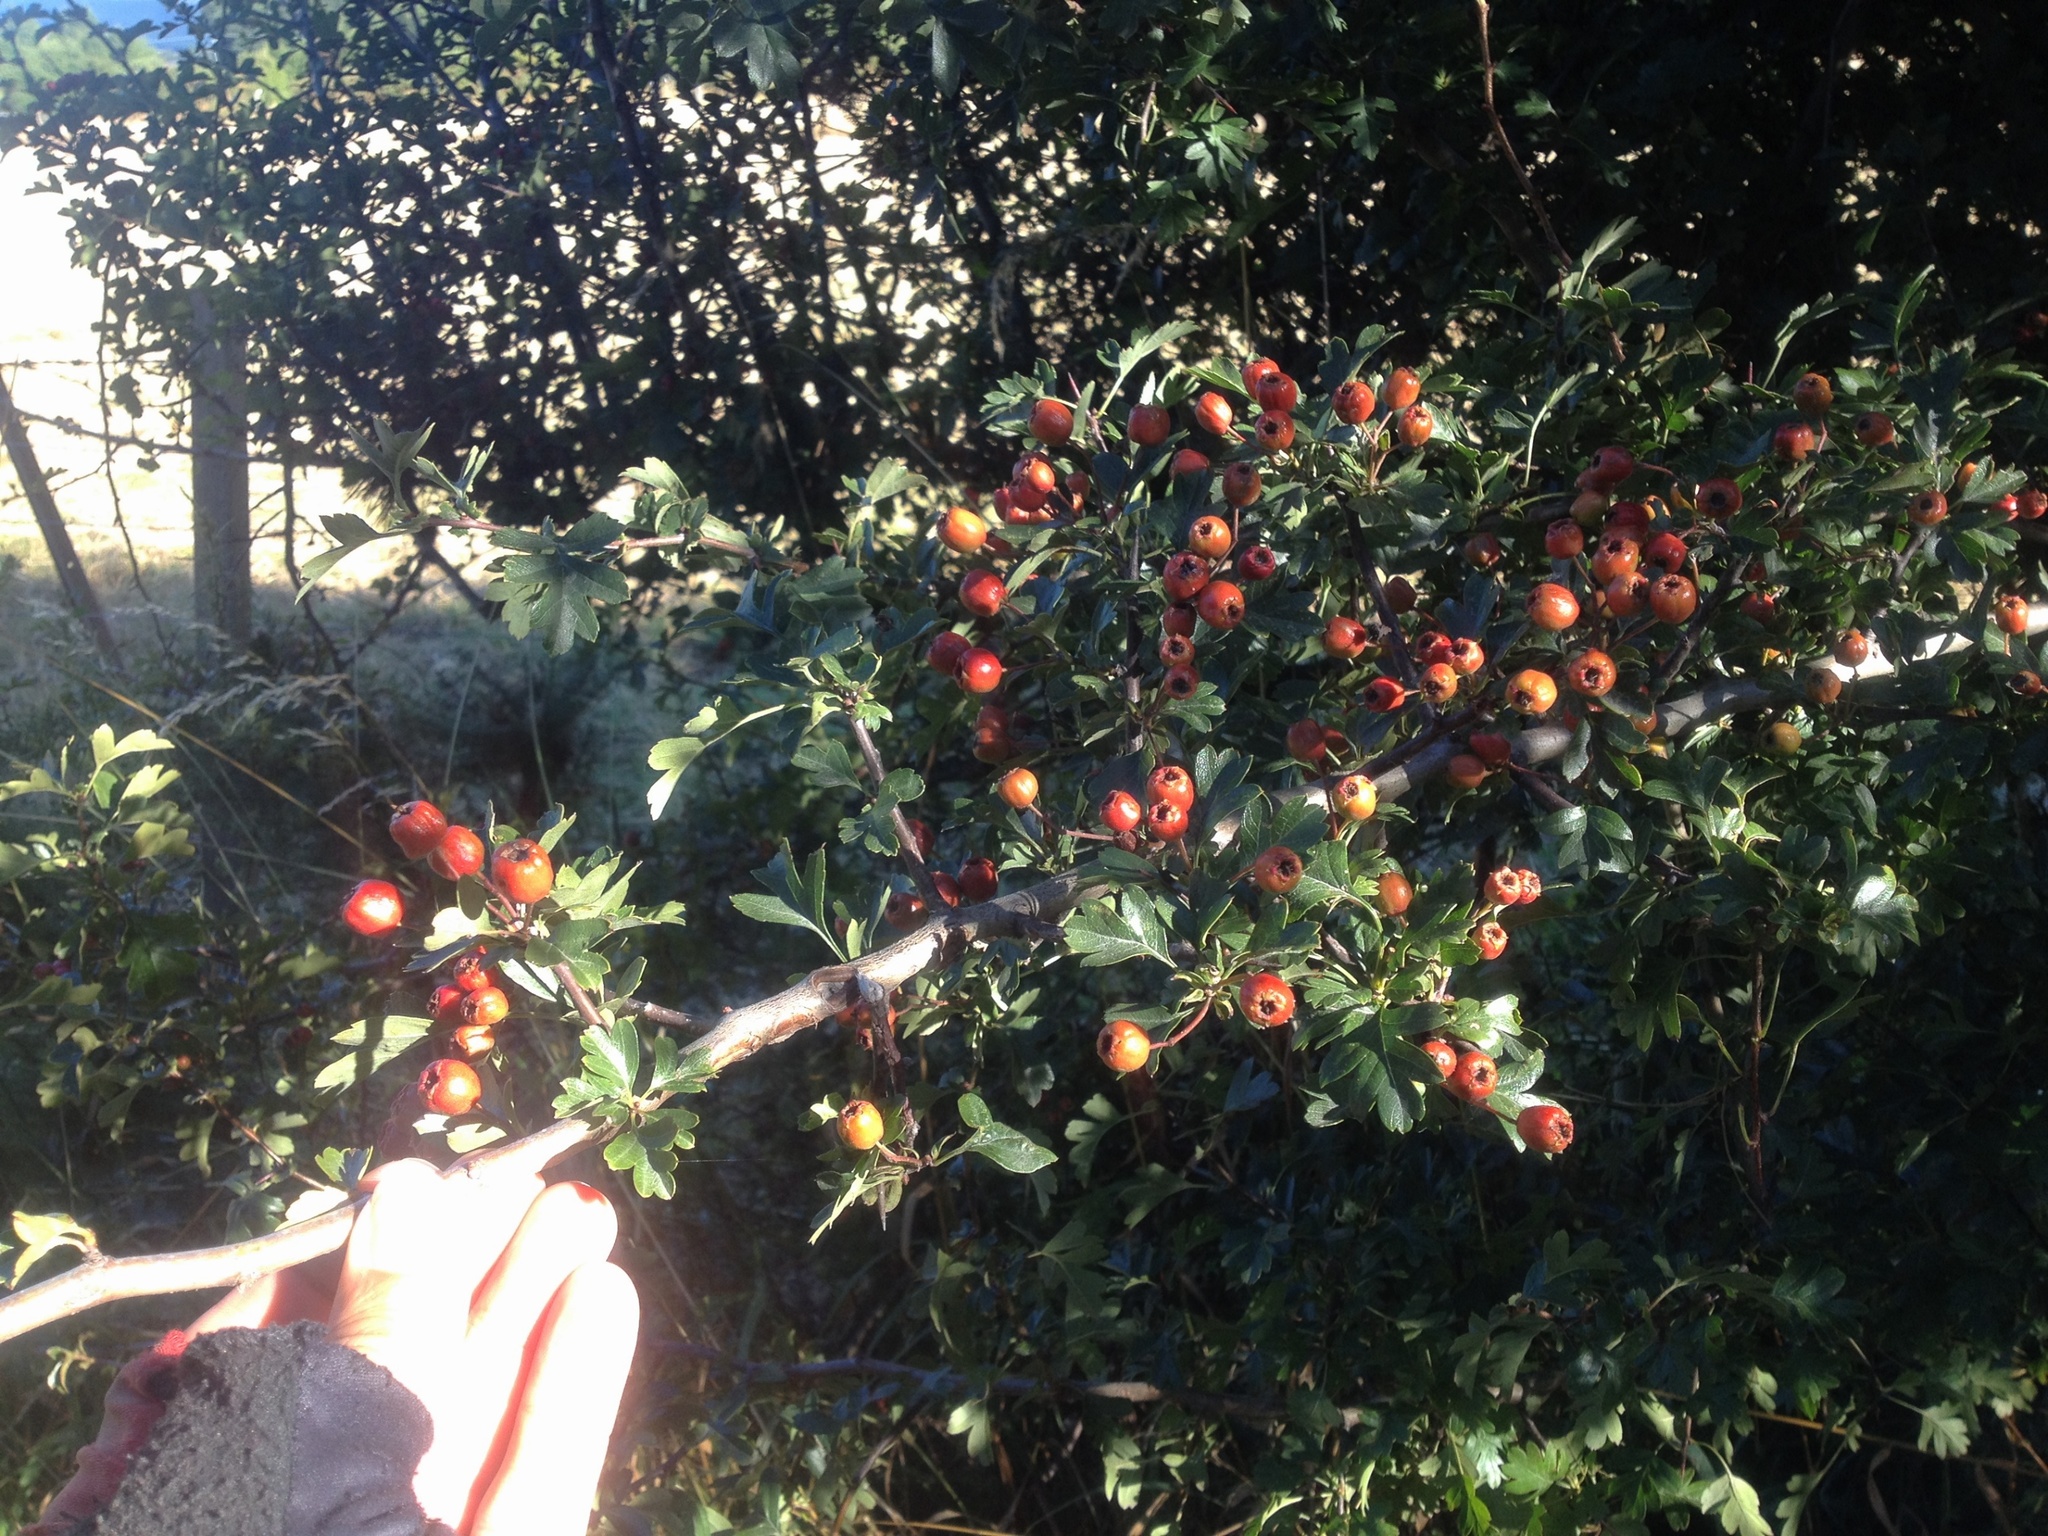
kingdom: Plantae
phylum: Tracheophyta
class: Magnoliopsida
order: Rosales
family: Rosaceae
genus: Crataegus
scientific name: Crataegus monogyna
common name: Hawthorn
